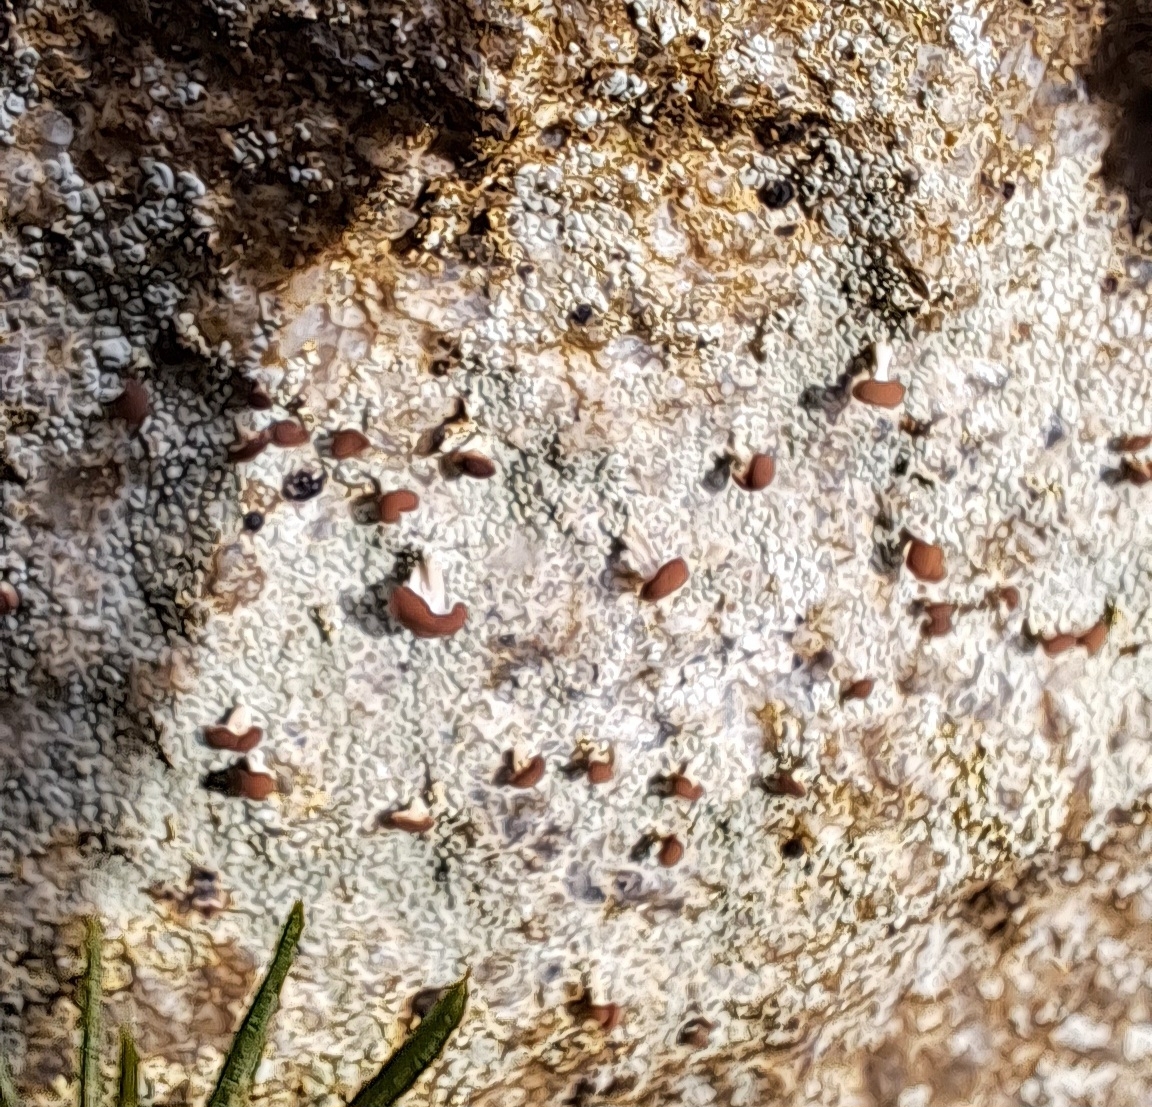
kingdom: Fungi
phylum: Ascomycota
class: Lecanoromycetes
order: Baeomycetales
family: Baeomycetaceae
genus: Baeomyces
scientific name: Baeomyces rufus
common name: Brown beret lichen
